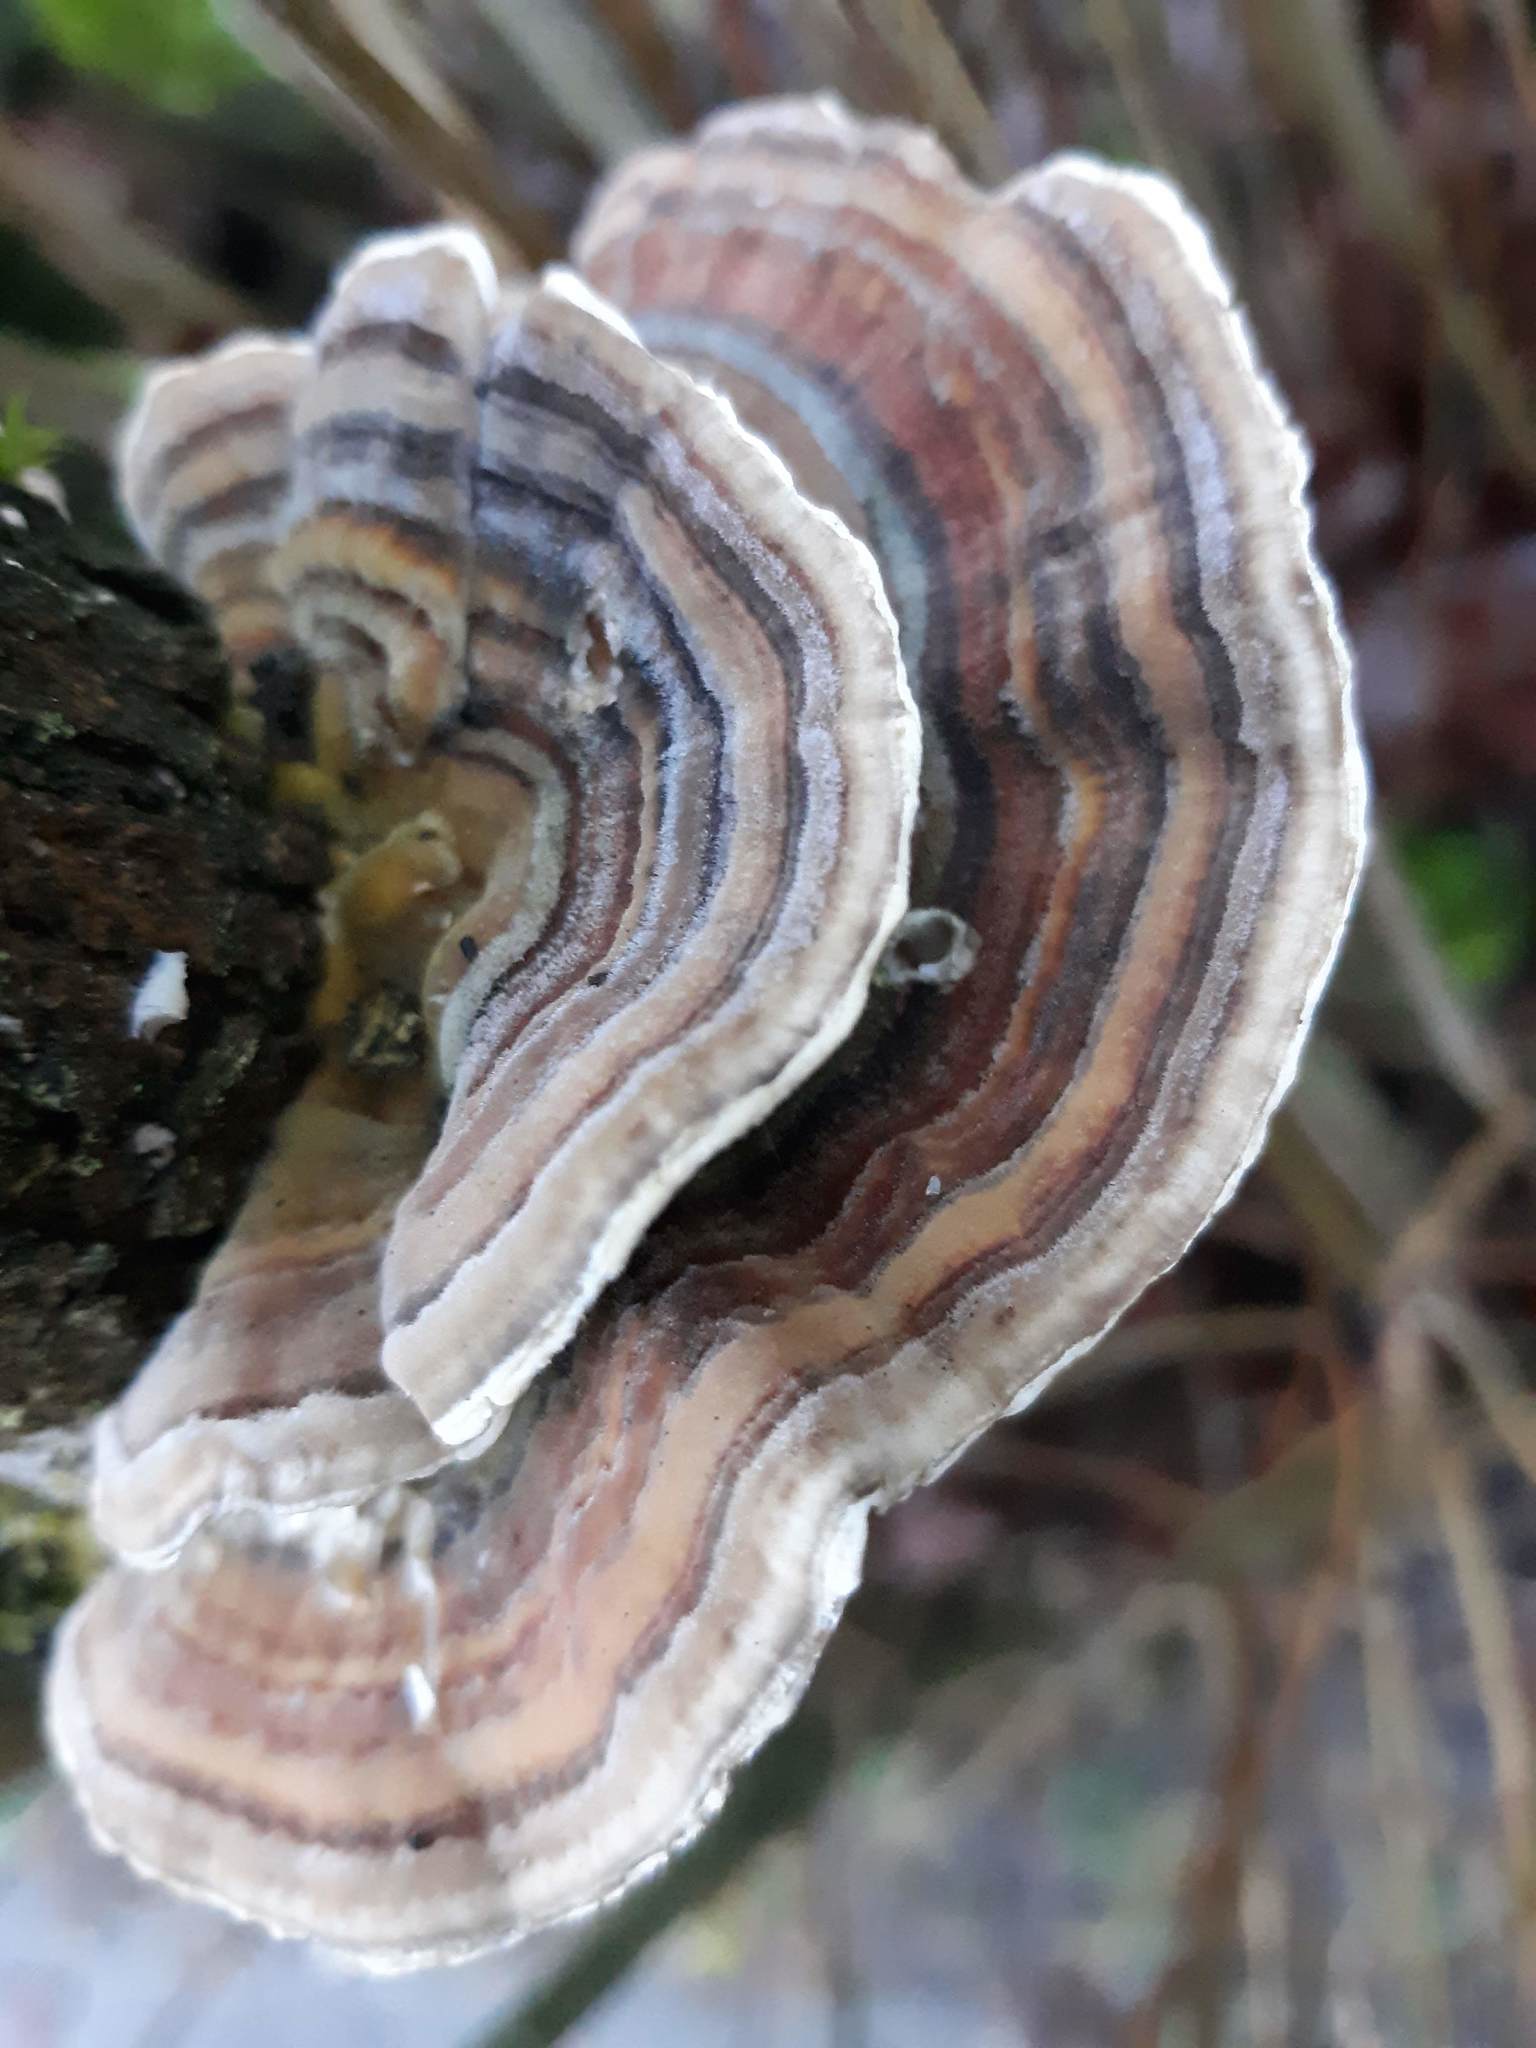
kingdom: Fungi
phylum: Basidiomycota
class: Agaricomycetes
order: Polyporales
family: Polyporaceae
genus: Trametes
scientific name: Trametes versicolor
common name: Turkeytail
